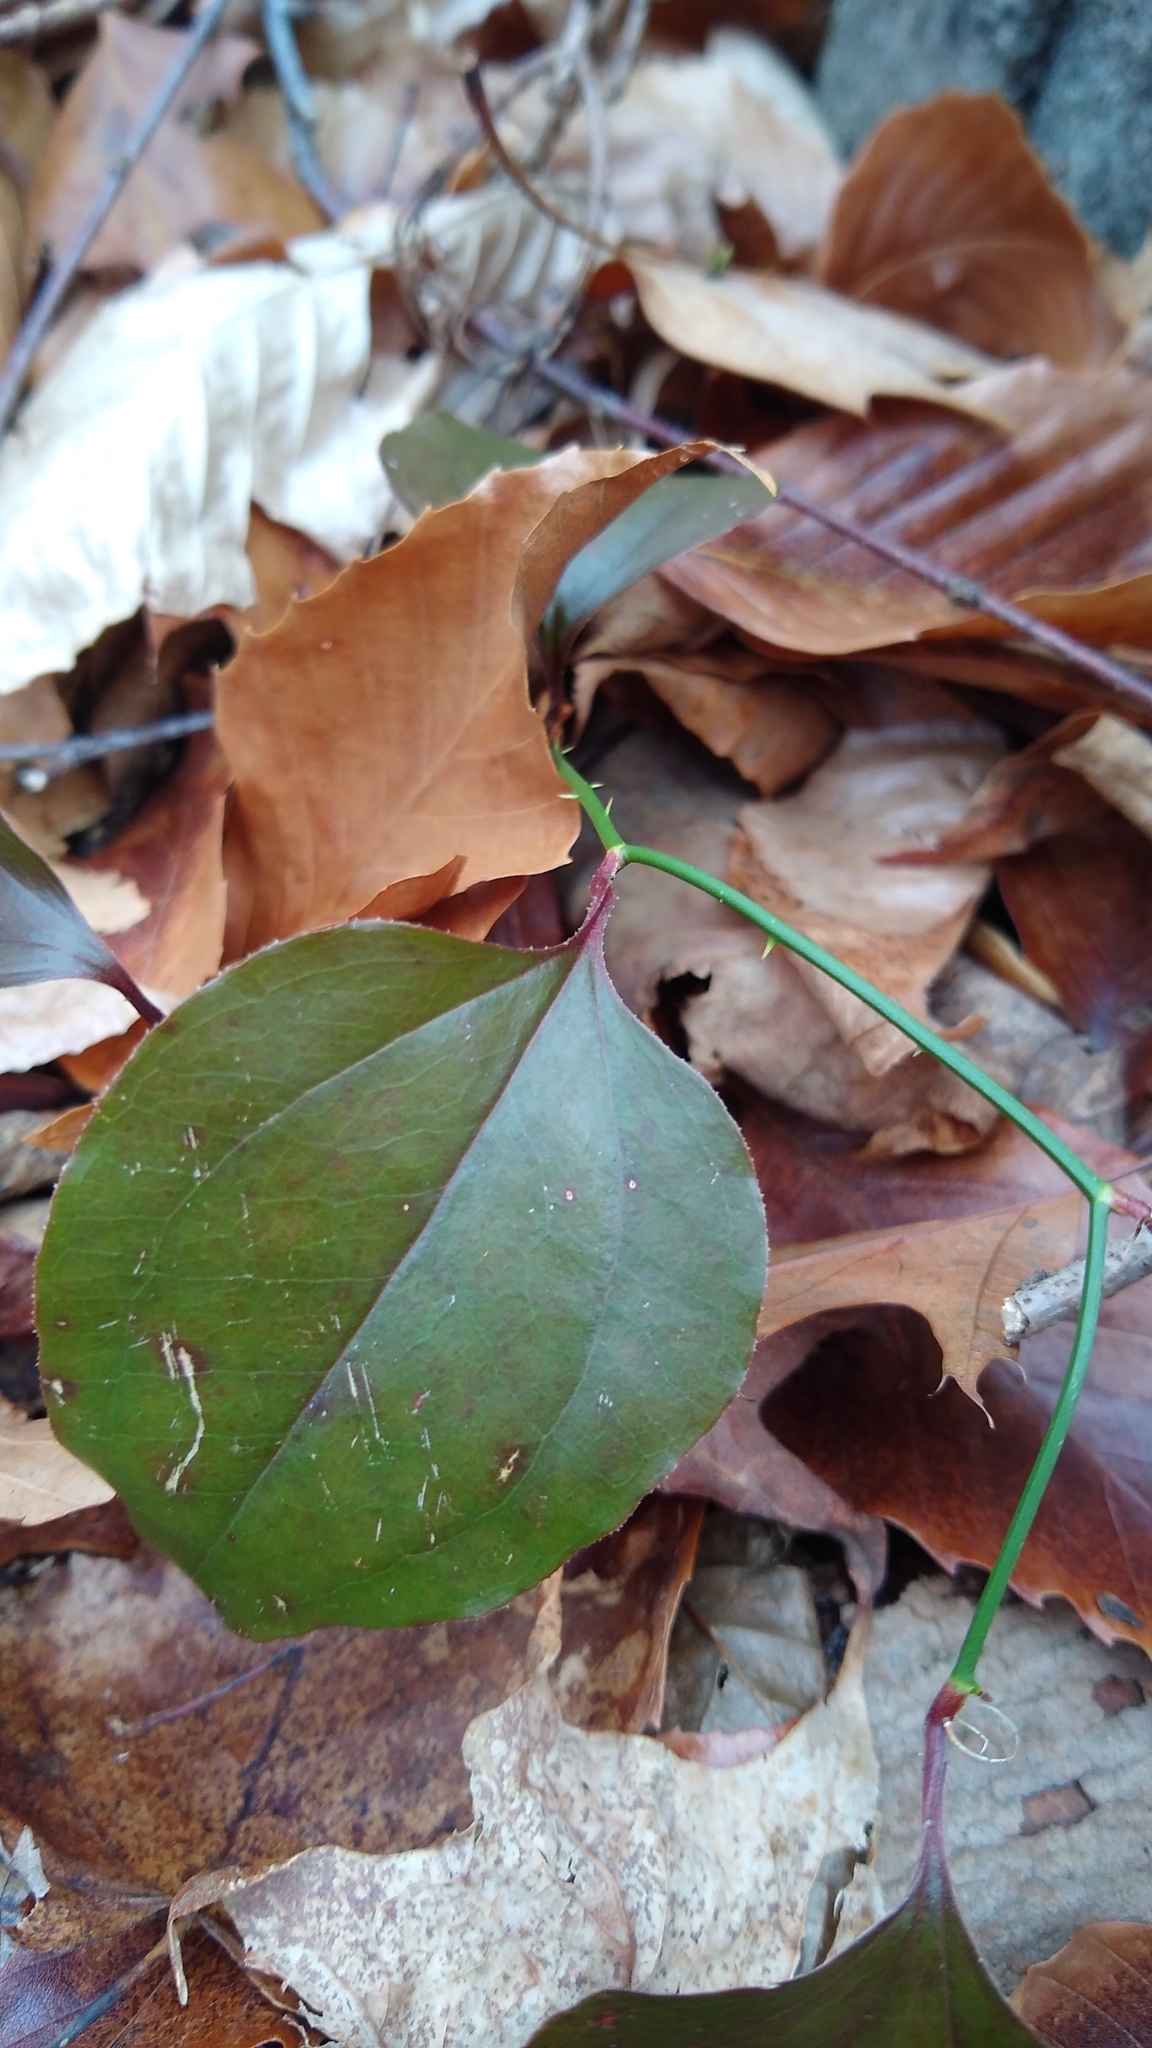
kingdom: Plantae
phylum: Tracheophyta
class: Liliopsida
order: Liliales
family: Smilacaceae
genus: Smilax
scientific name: Smilax rotundifolia
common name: Bullbriar
